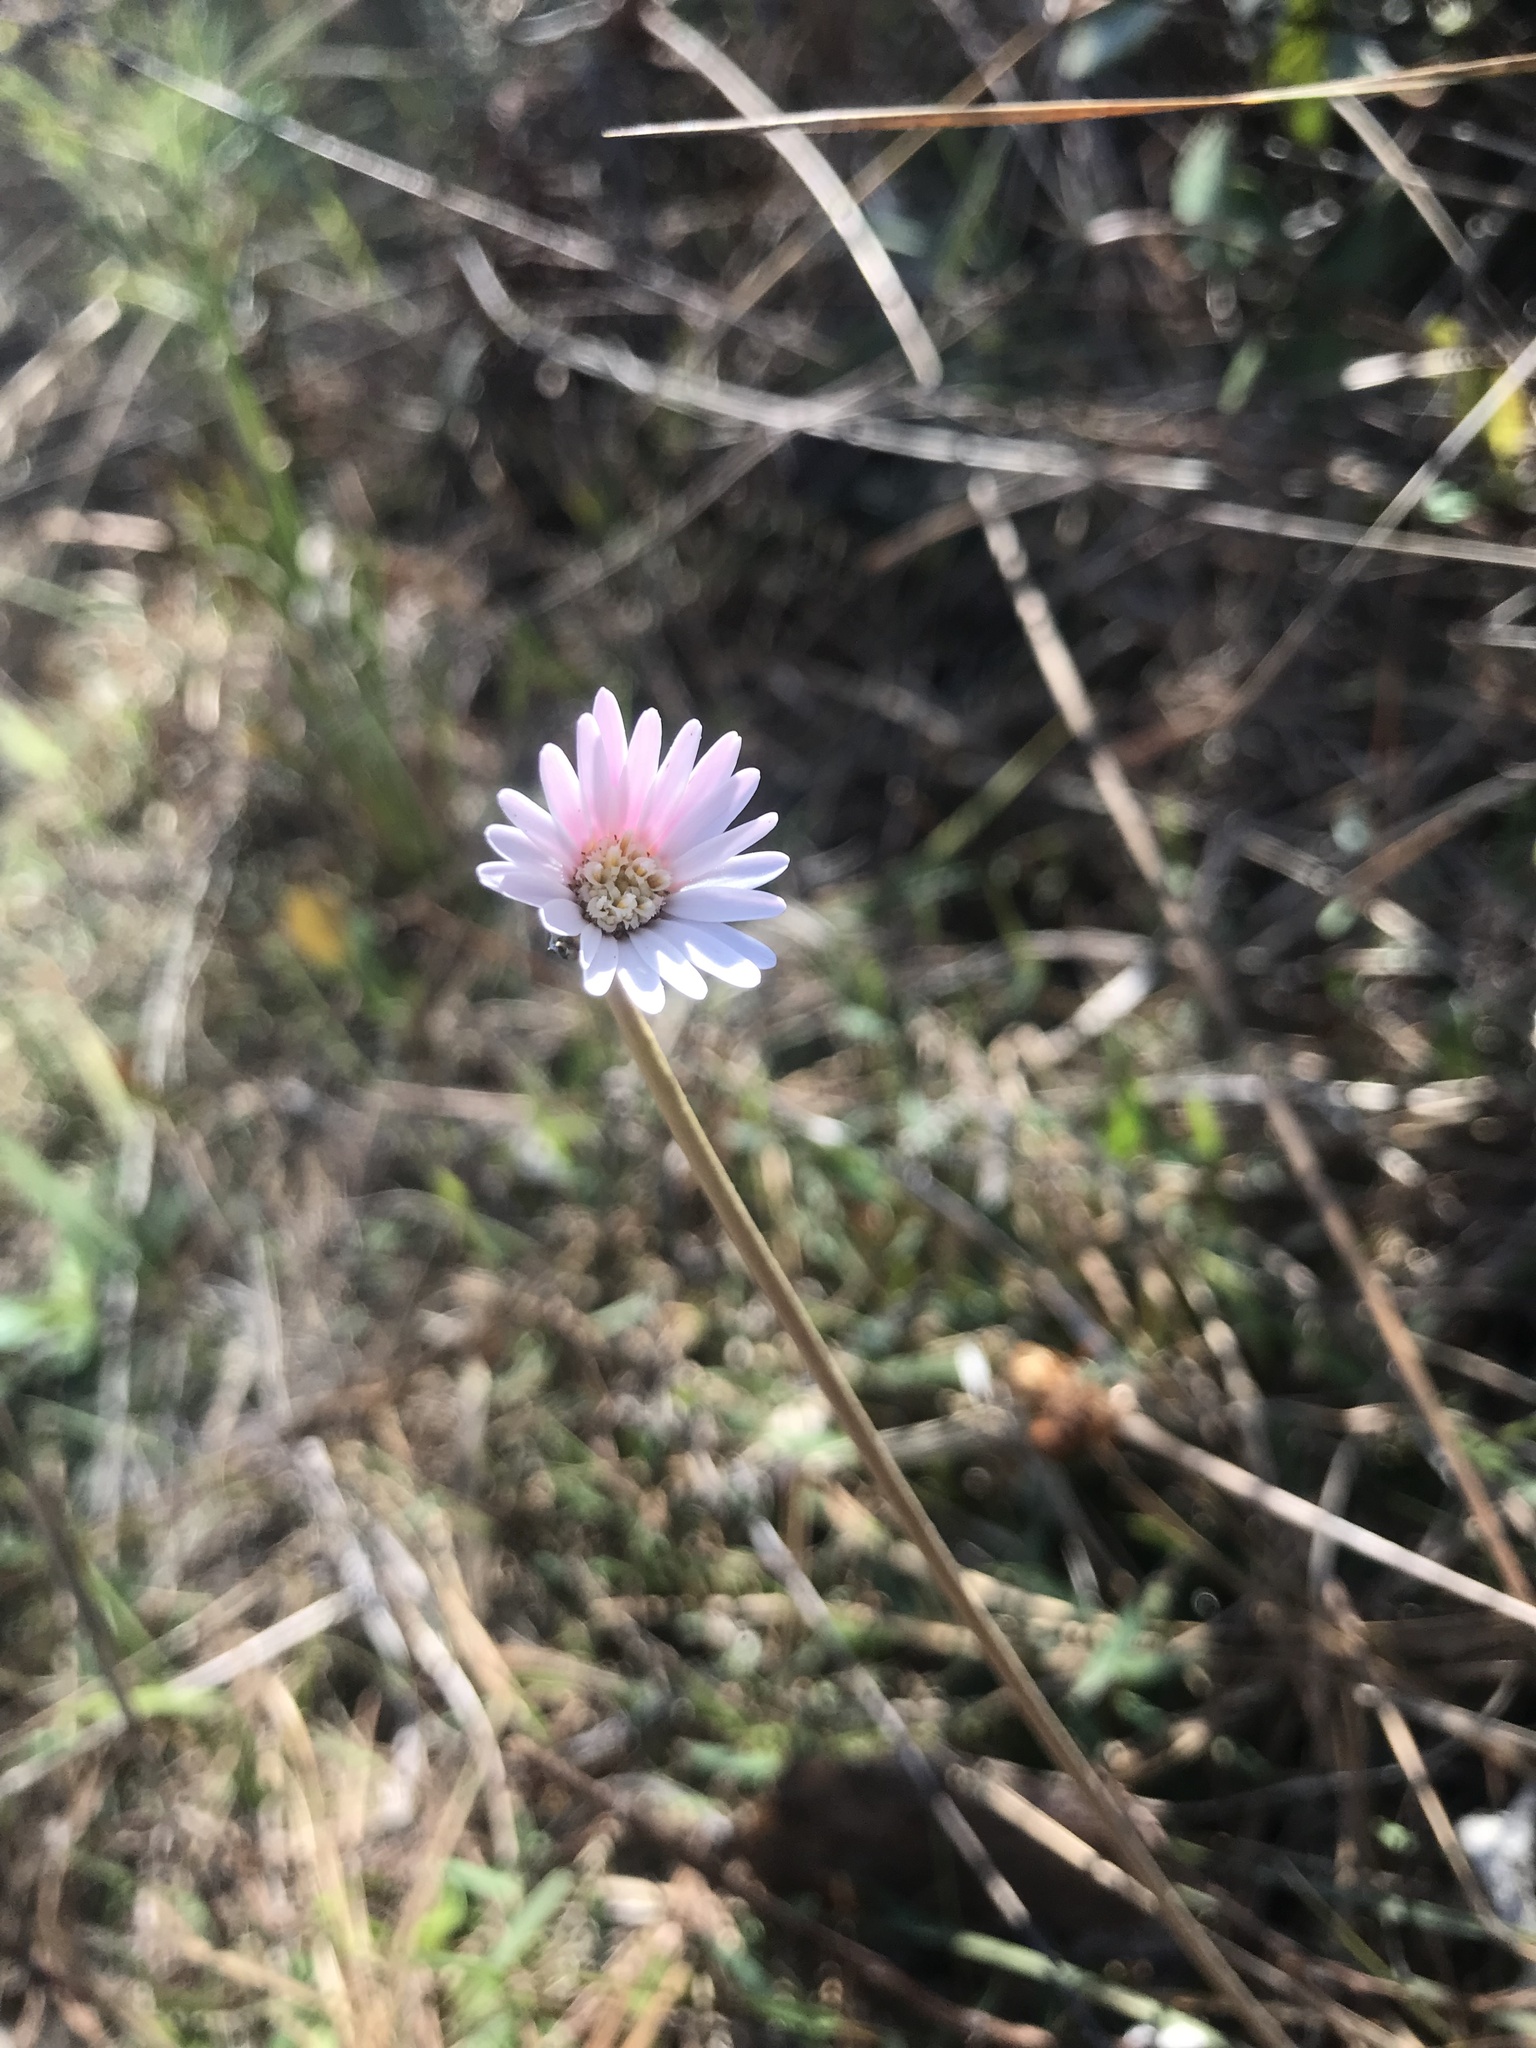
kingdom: Plantae
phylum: Tracheophyta
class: Magnoliopsida
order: Asterales
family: Asteraceae
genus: Chaptalia
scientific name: Chaptalia tomentosa
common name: Woolly sunbonnet
